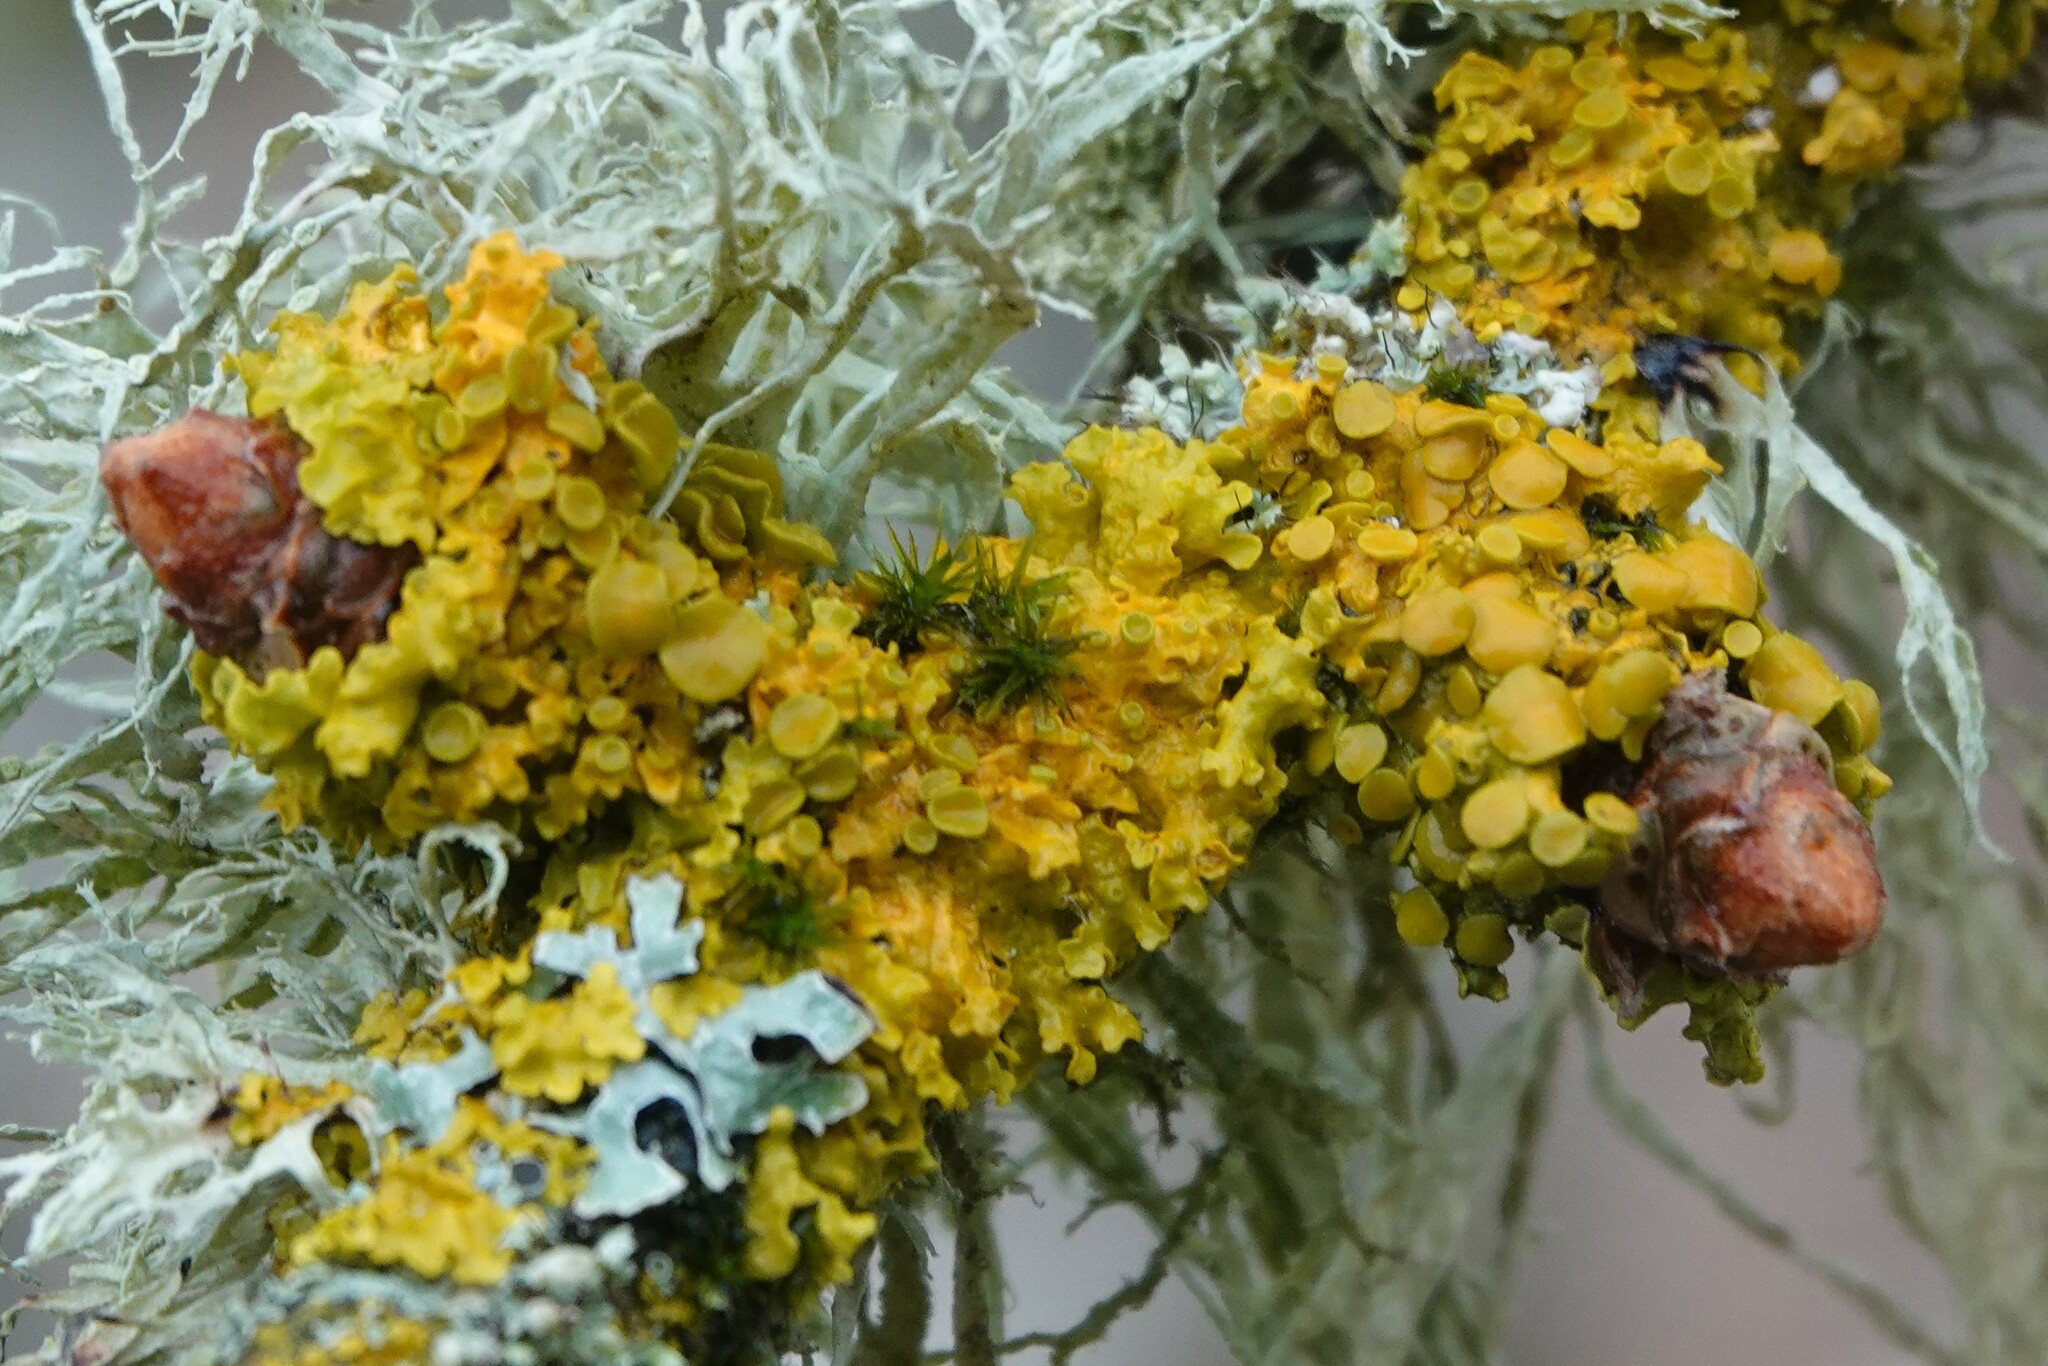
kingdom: Fungi
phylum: Ascomycota
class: Lecanoromycetes
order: Teloschistales
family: Teloschistaceae
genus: Xanthoria
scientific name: Xanthoria parietina
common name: Common orange lichen
